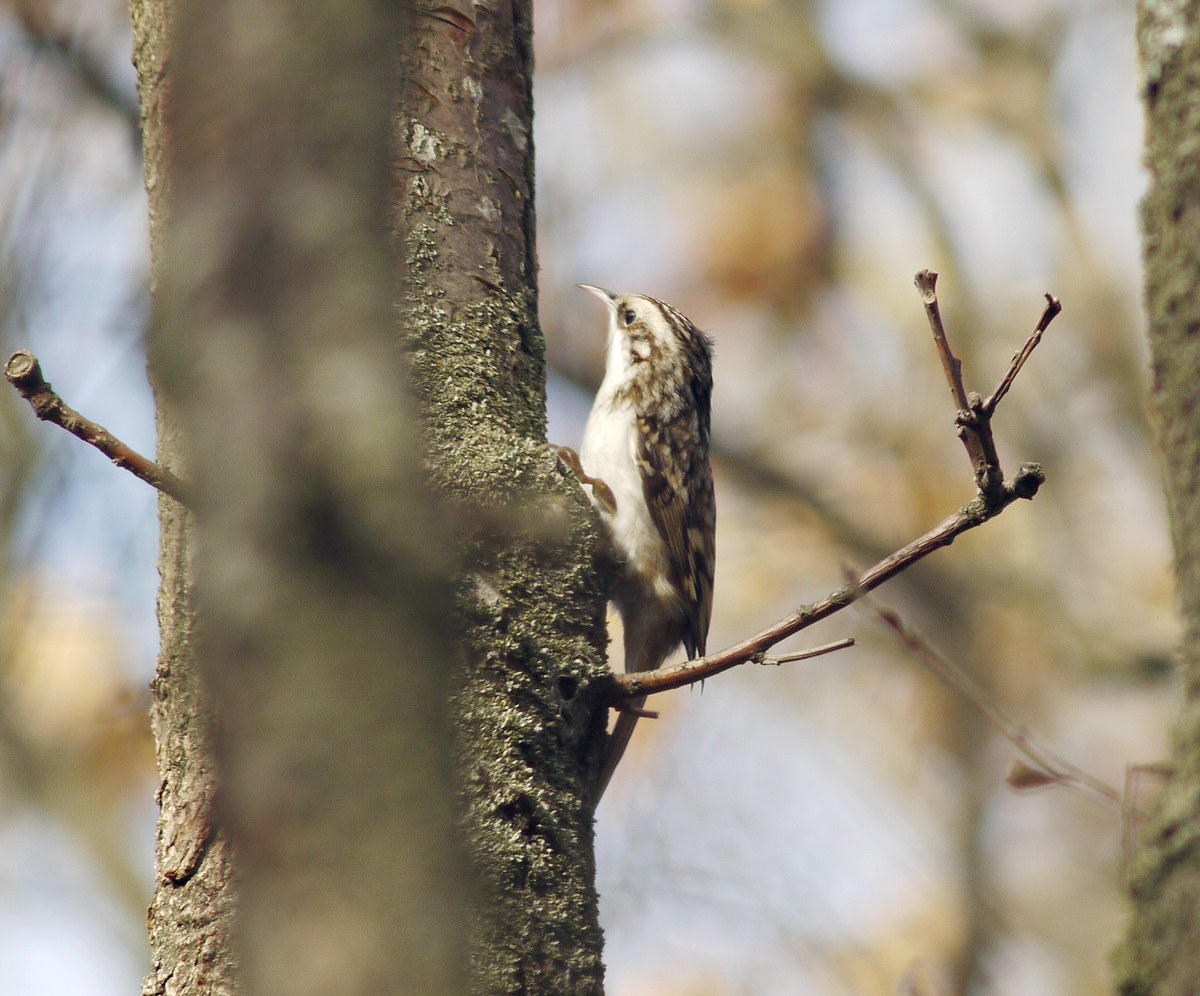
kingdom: Animalia
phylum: Chordata
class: Aves
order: Passeriformes
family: Certhiidae
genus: Certhia
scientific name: Certhia familiaris
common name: Eurasian treecreeper
